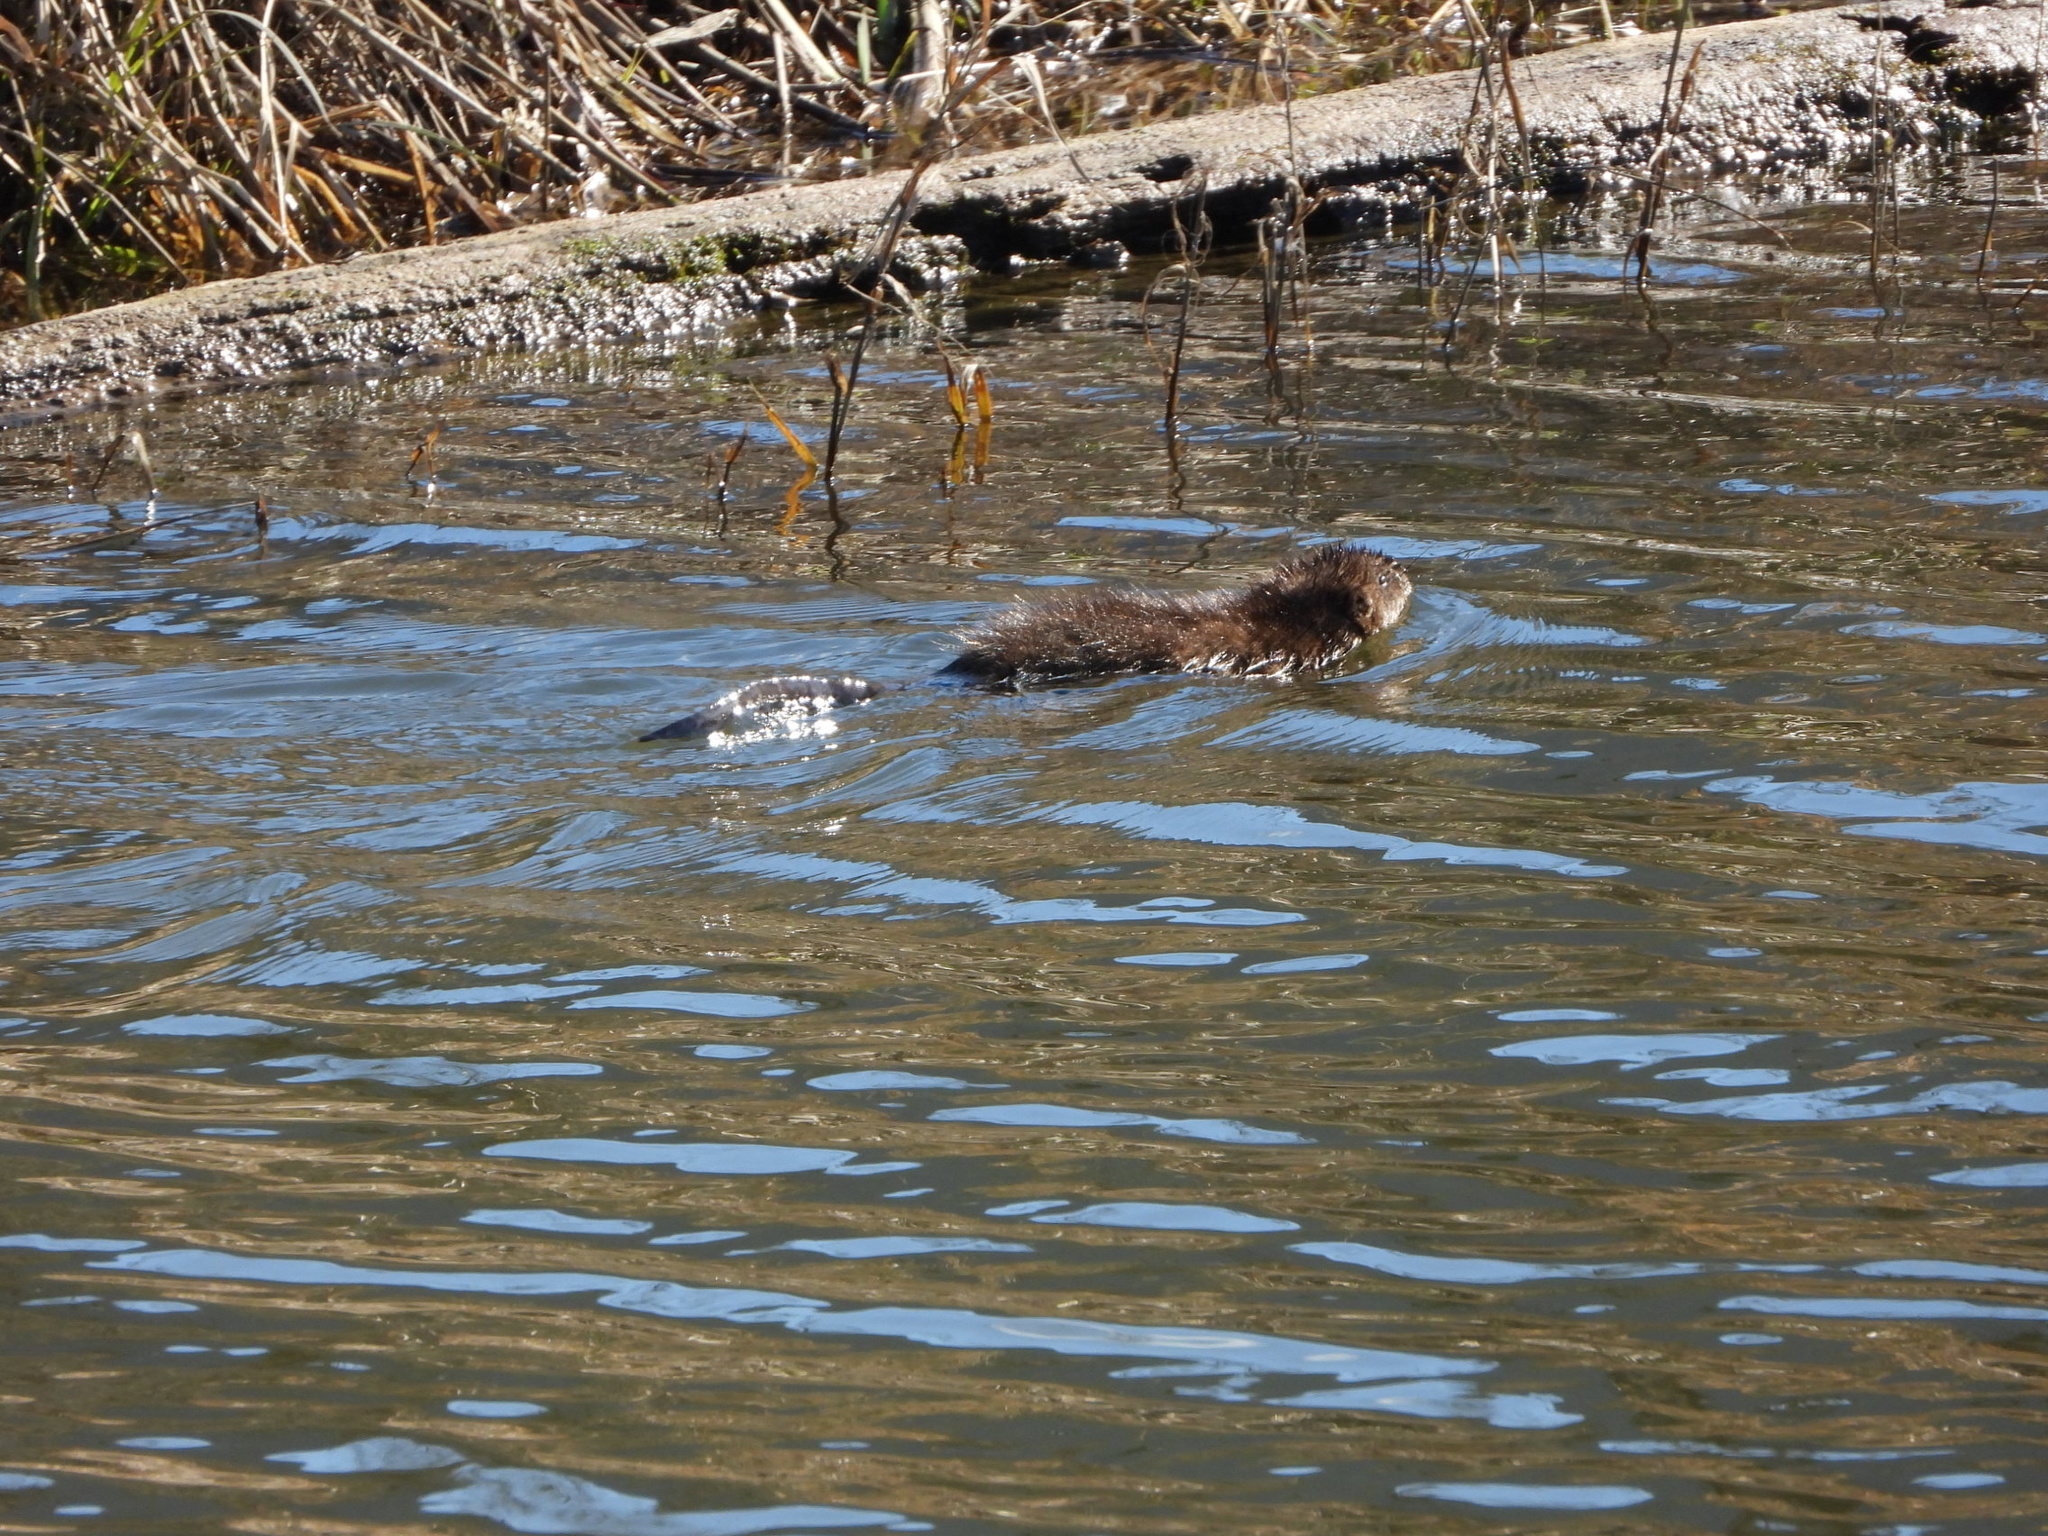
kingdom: Animalia
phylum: Chordata
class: Mammalia
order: Rodentia
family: Cricetidae
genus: Ondatra
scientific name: Ondatra zibethicus
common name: Muskrat
